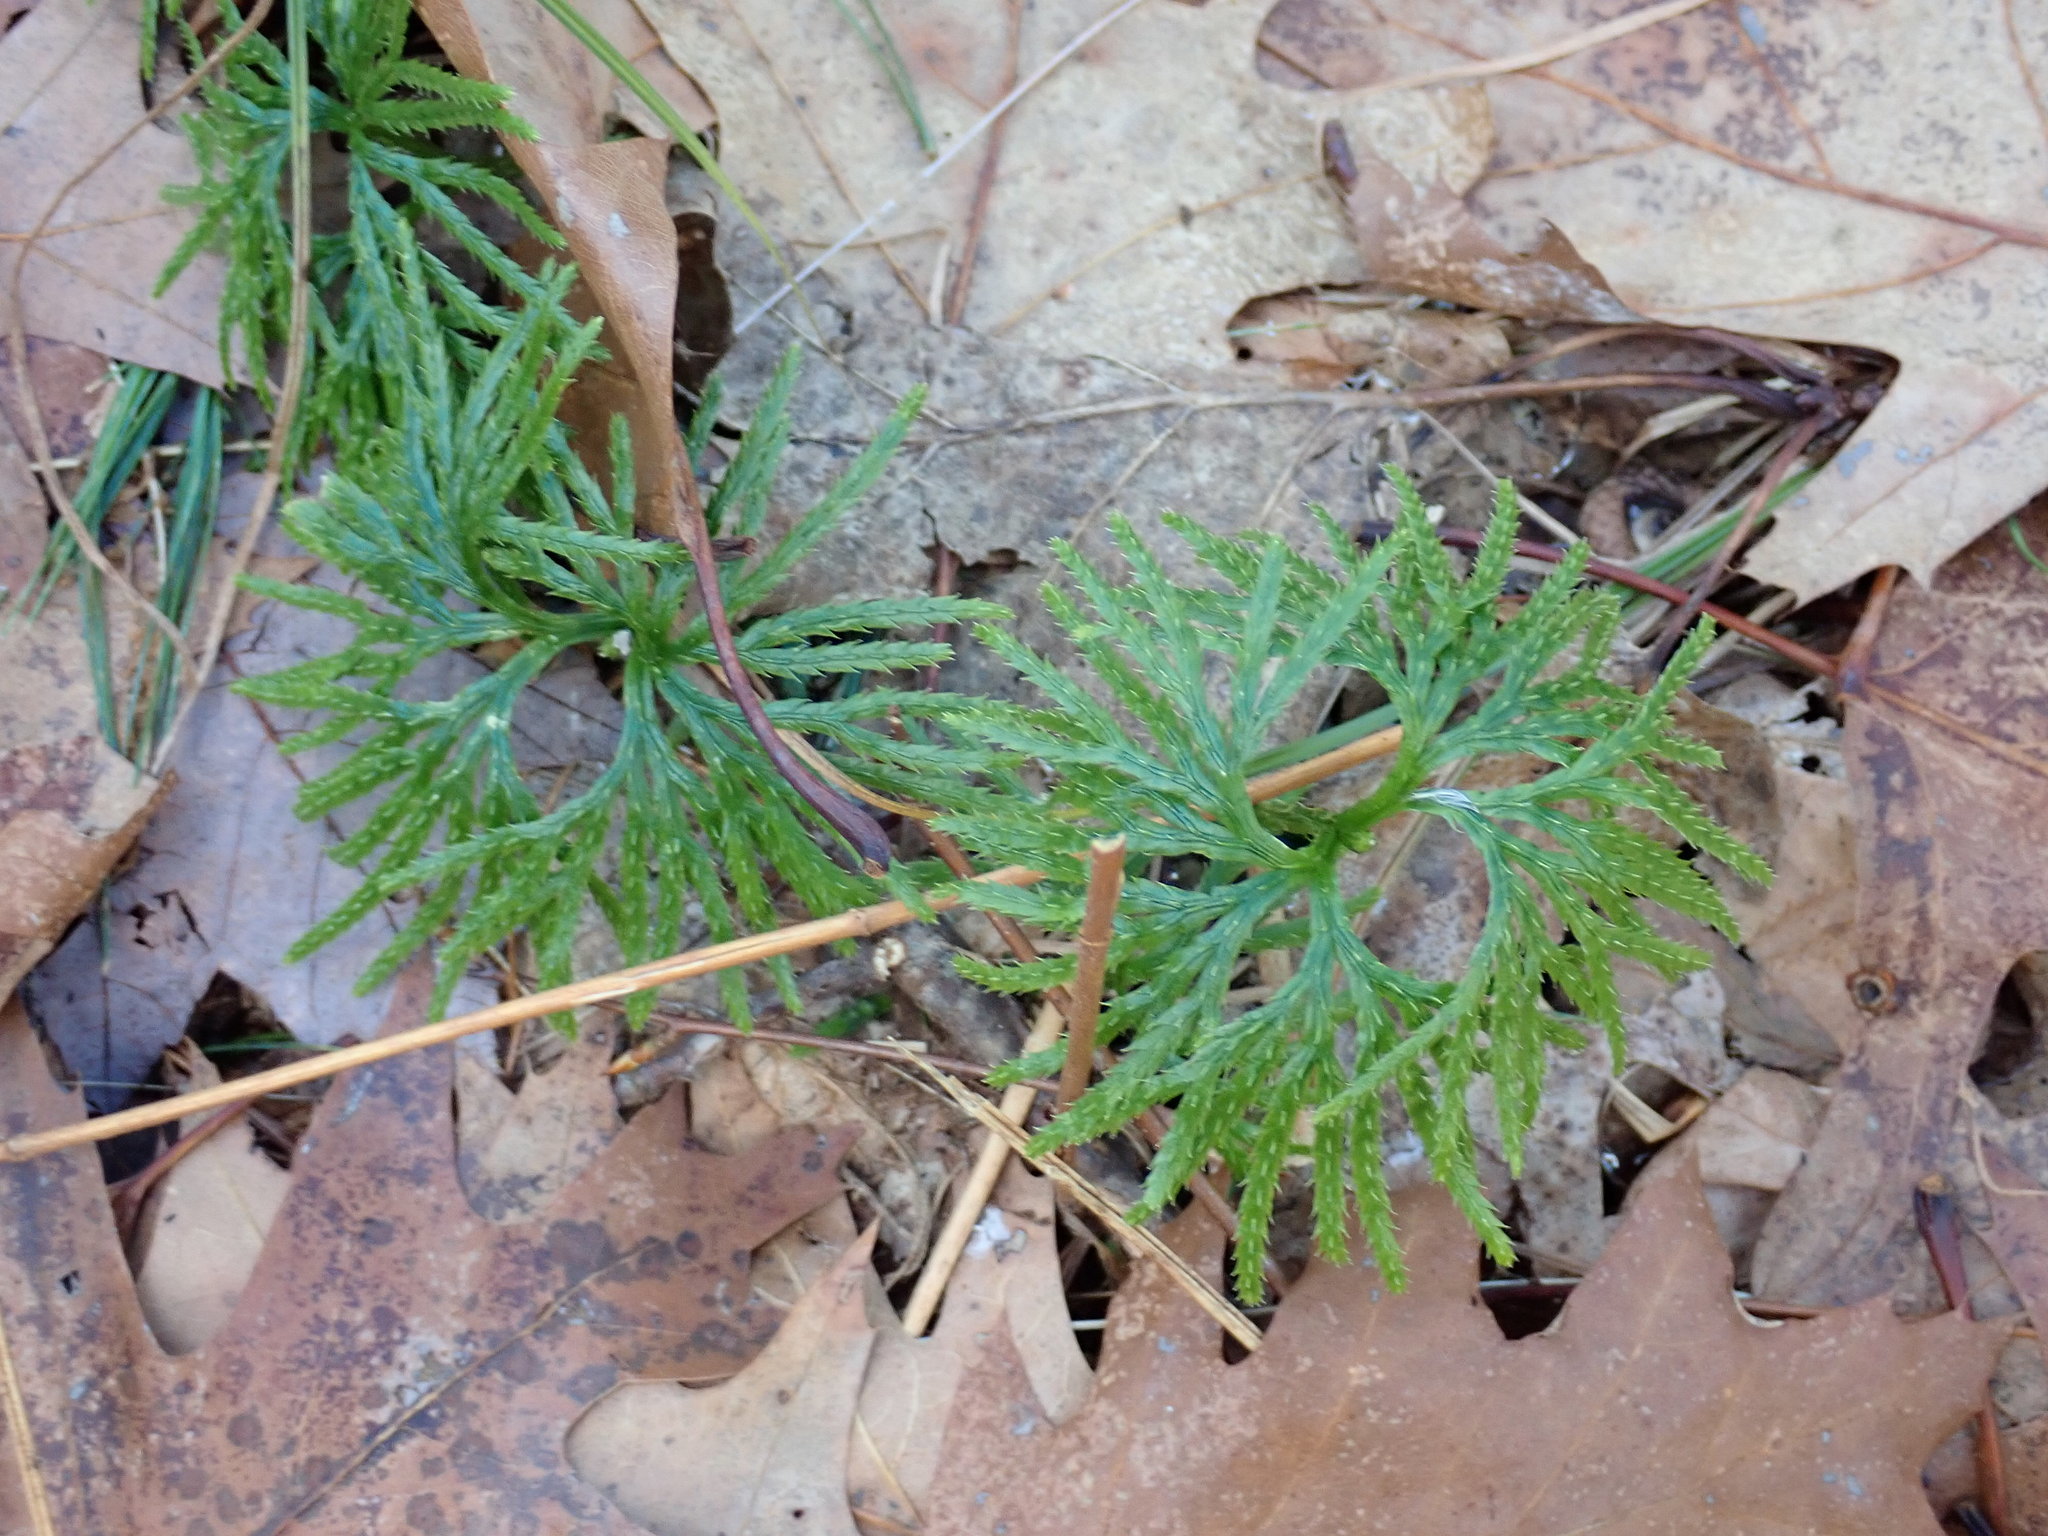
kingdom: Plantae
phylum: Tracheophyta
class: Lycopodiopsida
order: Lycopodiales
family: Lycopodiaceae
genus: Diphasiastrum
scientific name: Diphasiastrum digitatum
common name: Southern running-pine
